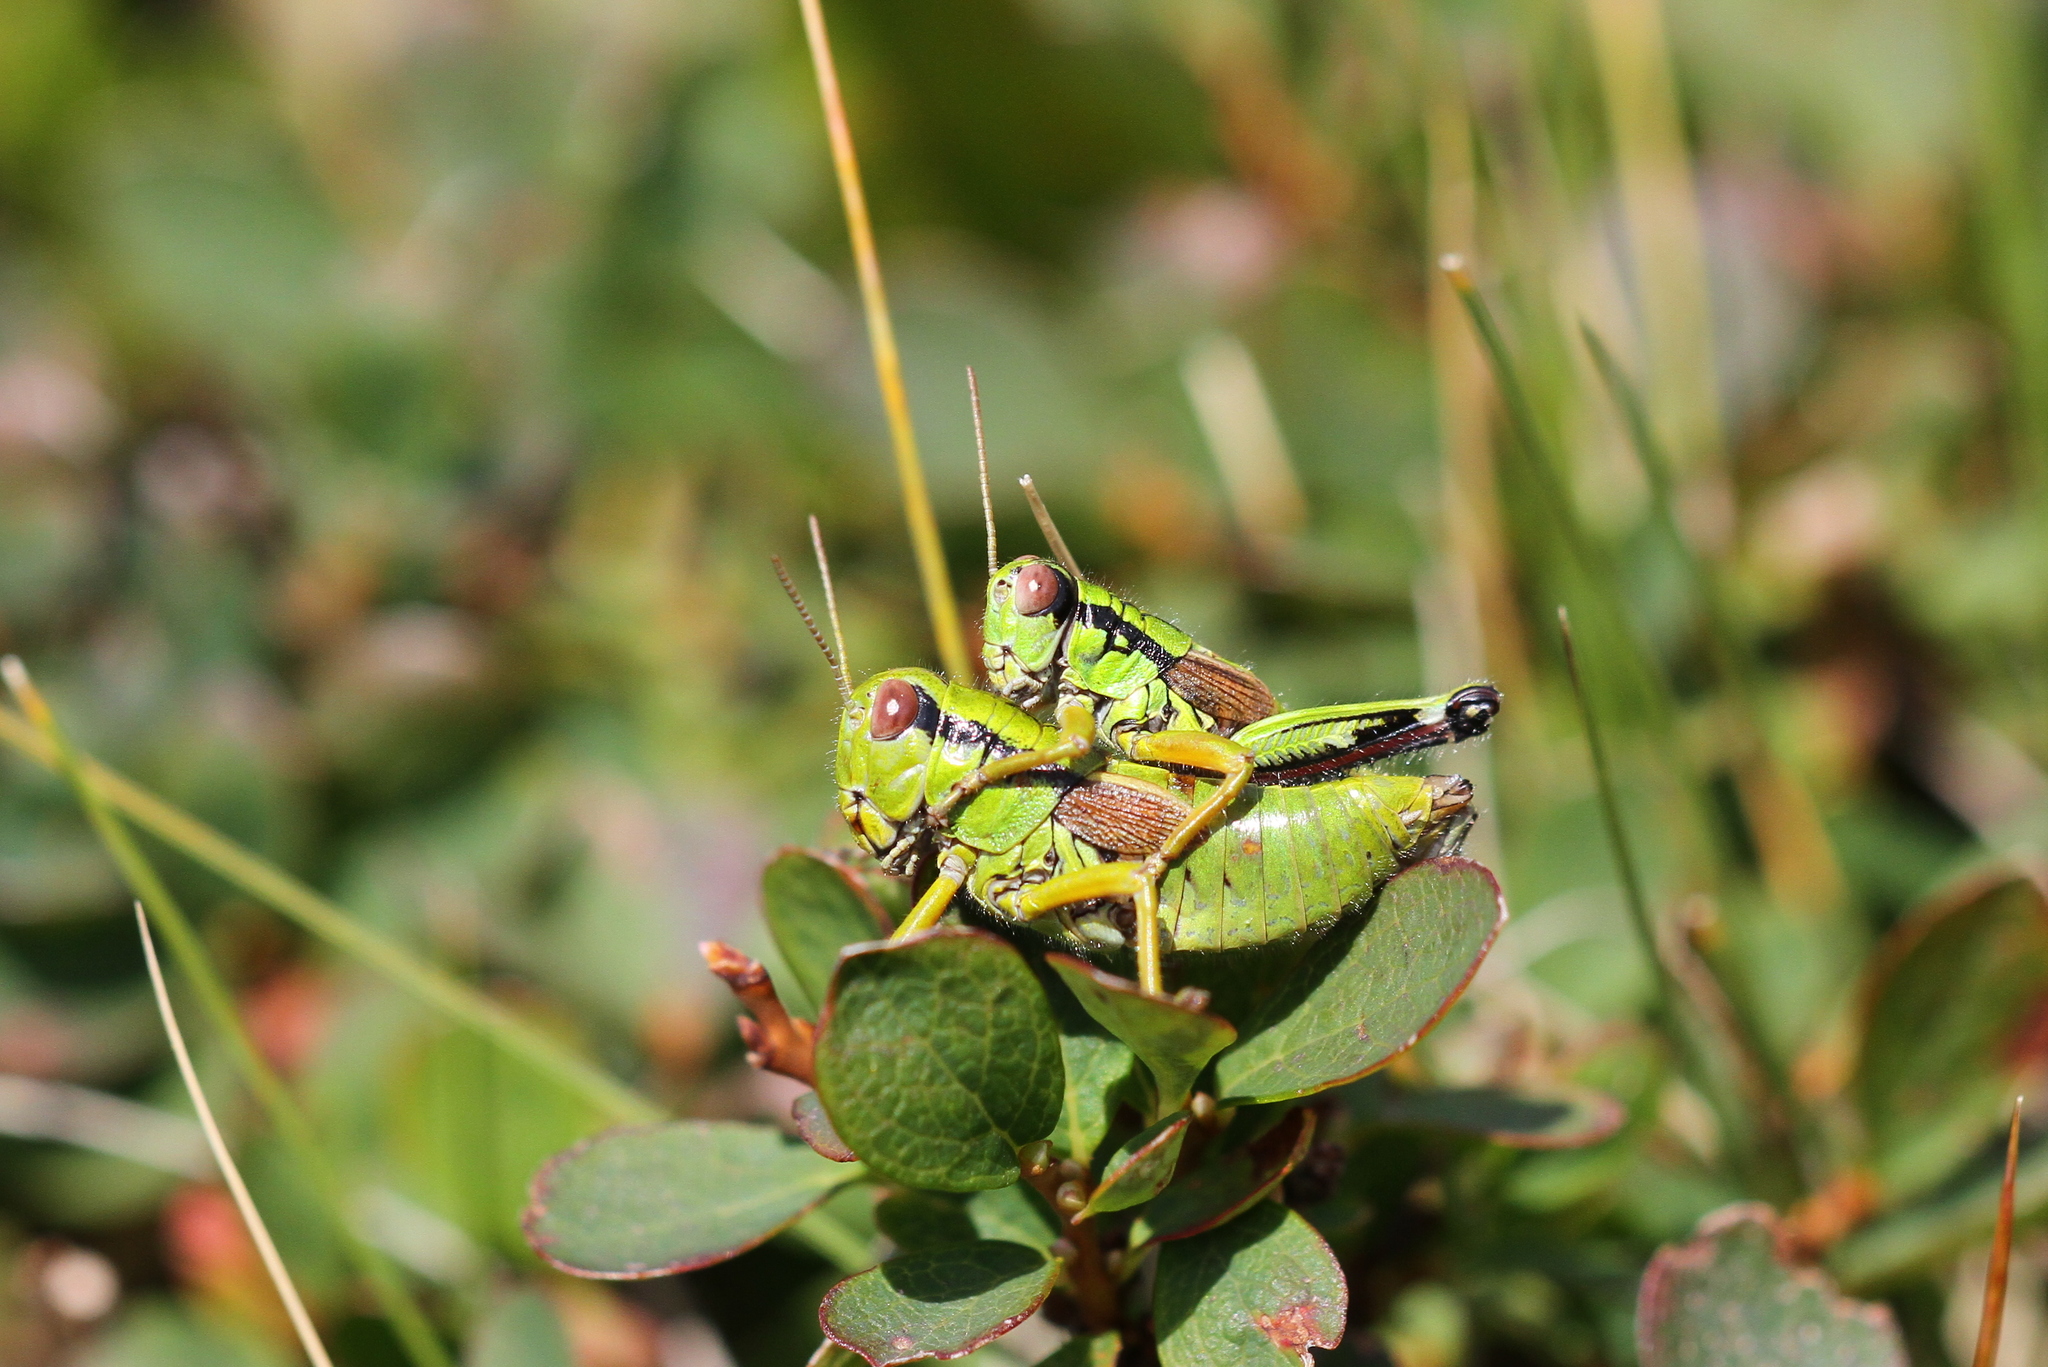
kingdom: Animalia
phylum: Arthropoda
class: Insecta
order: Orthoptera
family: Acrididae
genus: Miramella
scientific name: Miramella alpina
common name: Green mountain grasshopper
